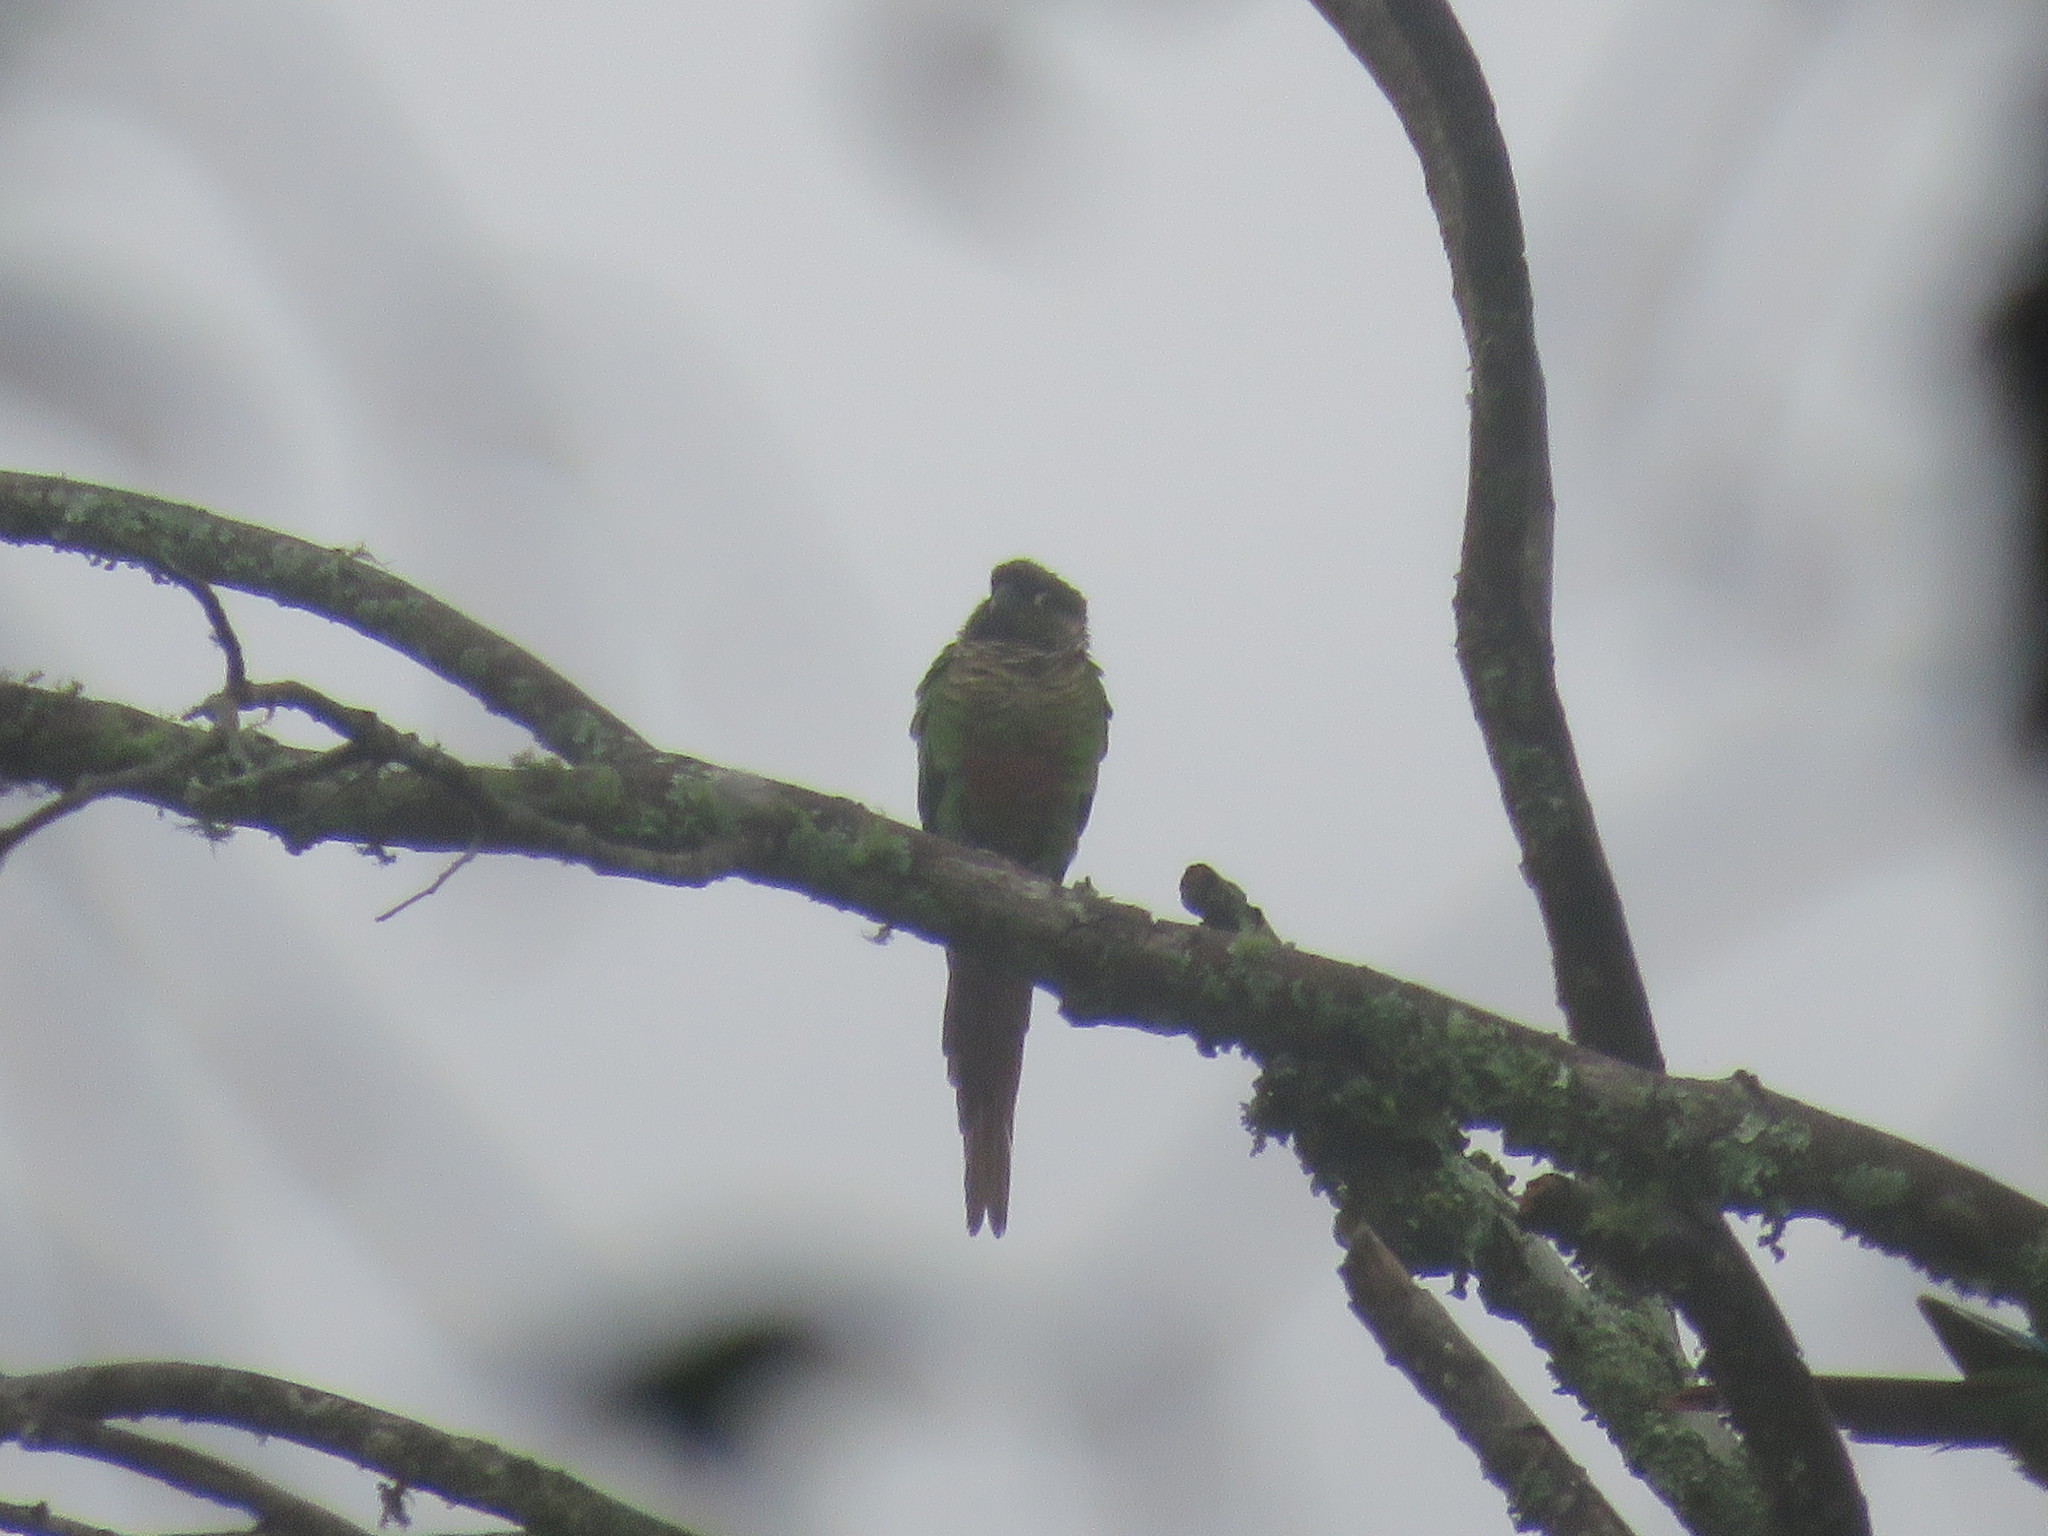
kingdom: Animalia
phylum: Chordata
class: Aves
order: Psittaciformes
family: Psittacidae
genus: Pyrrhura
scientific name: Pyrrhura molinae
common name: Green-cheeked parakeet
